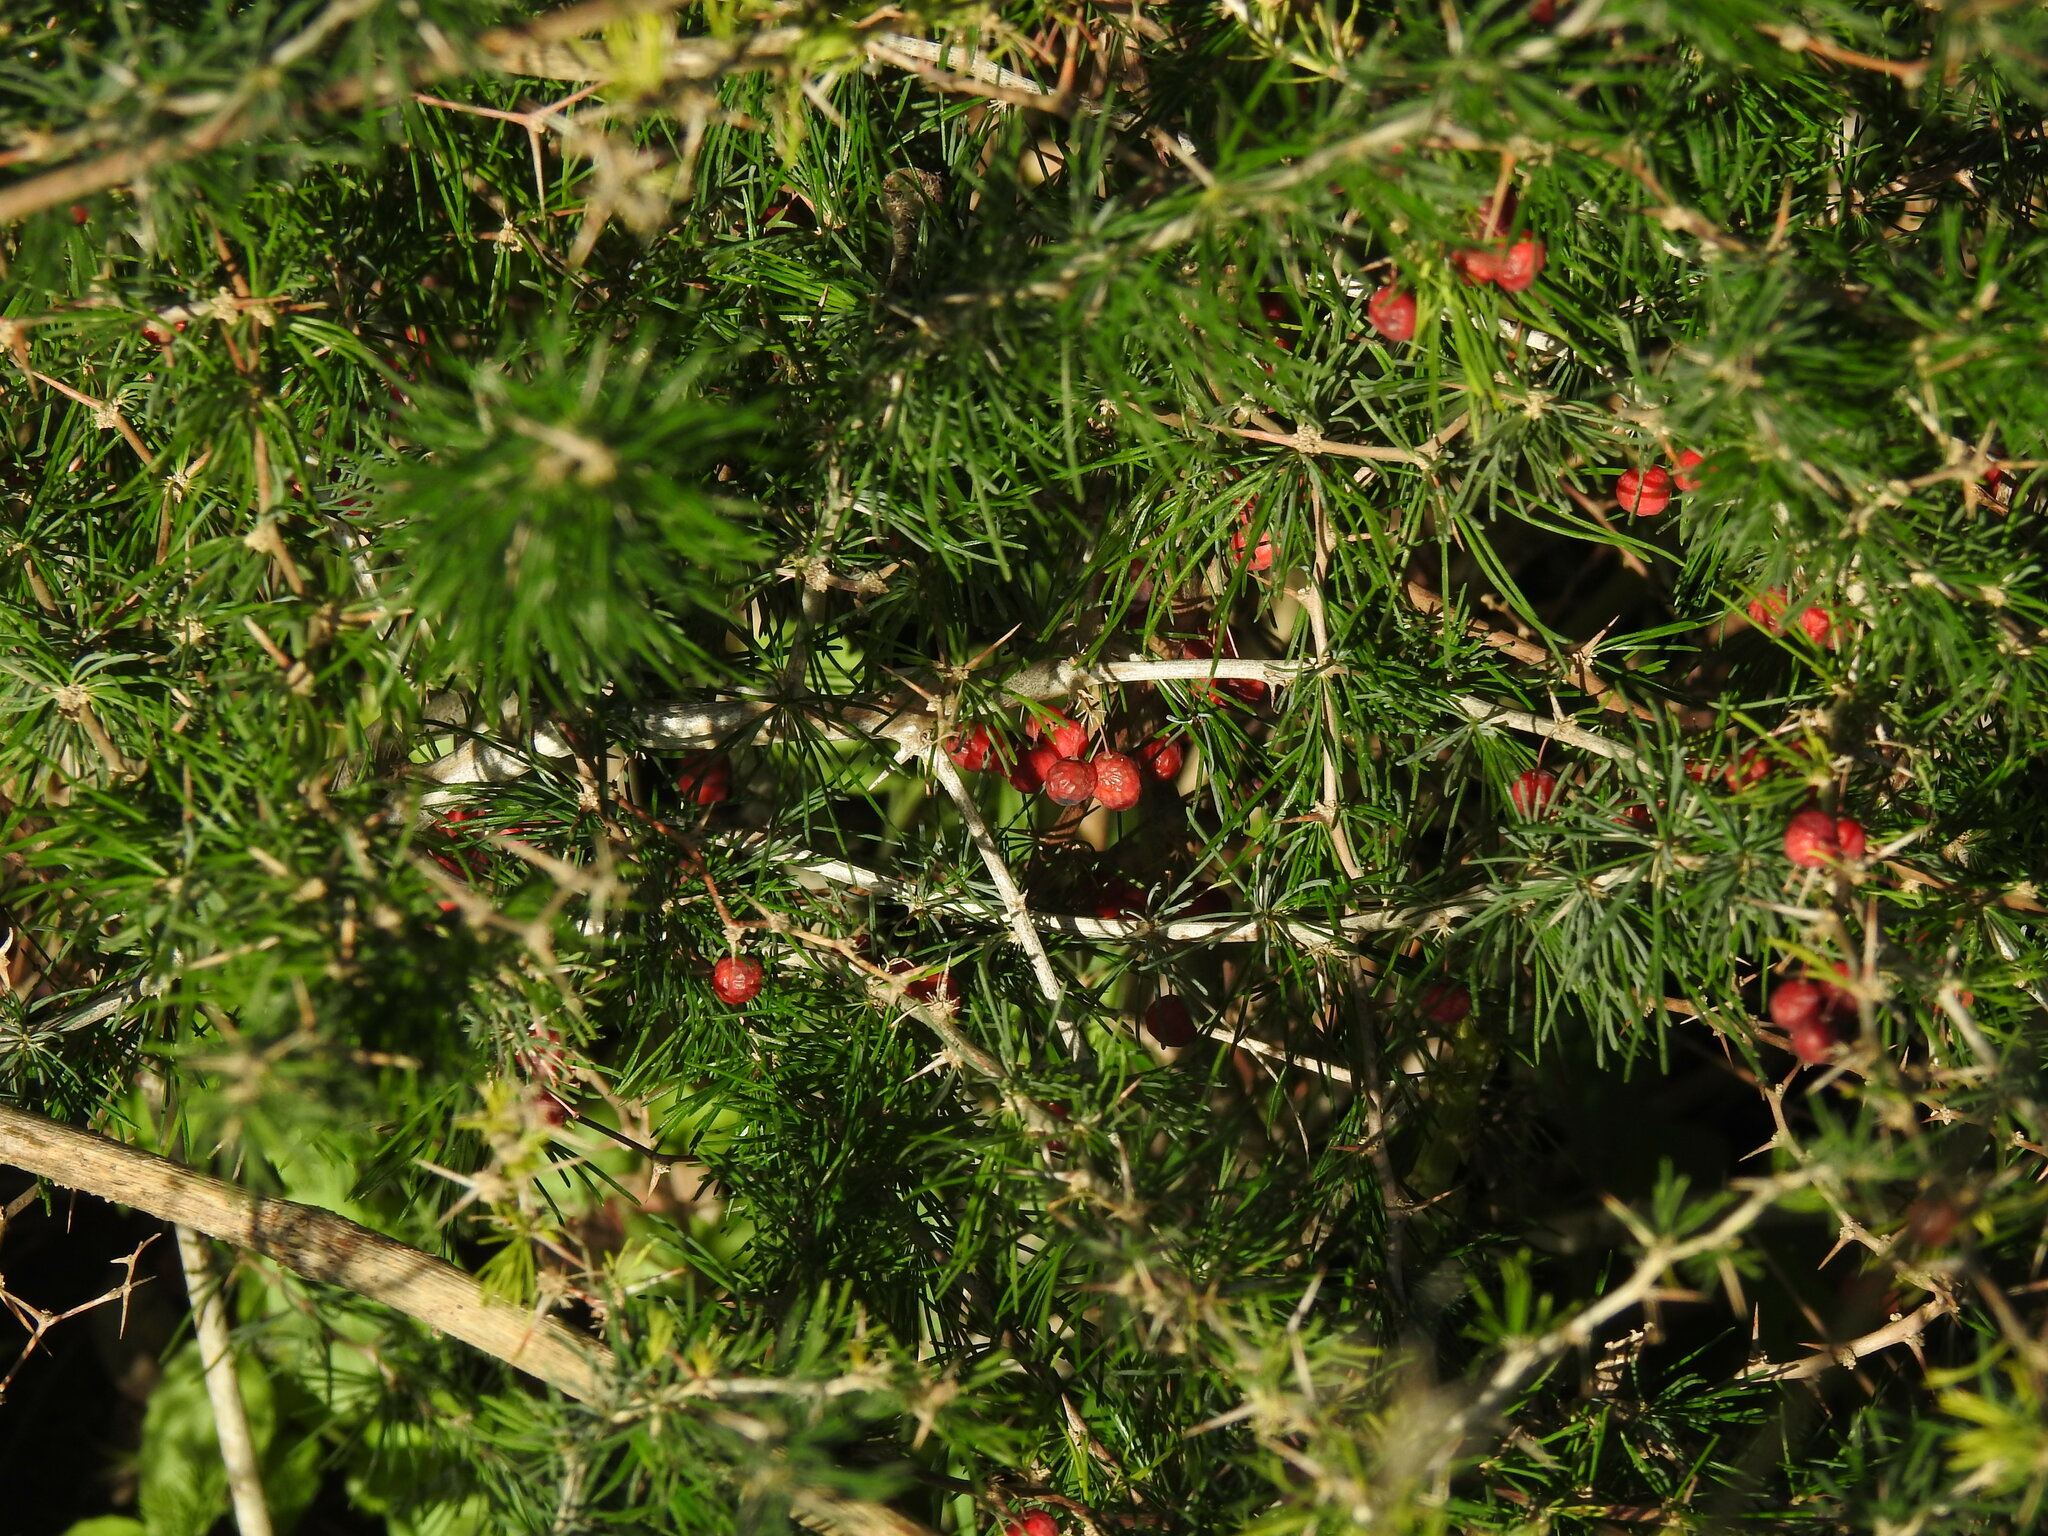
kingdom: Plantae
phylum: Tracheophyta
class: Liliopsida
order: Asparagales
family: Asparagaceae
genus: Asparagus
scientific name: Asparagus albus
